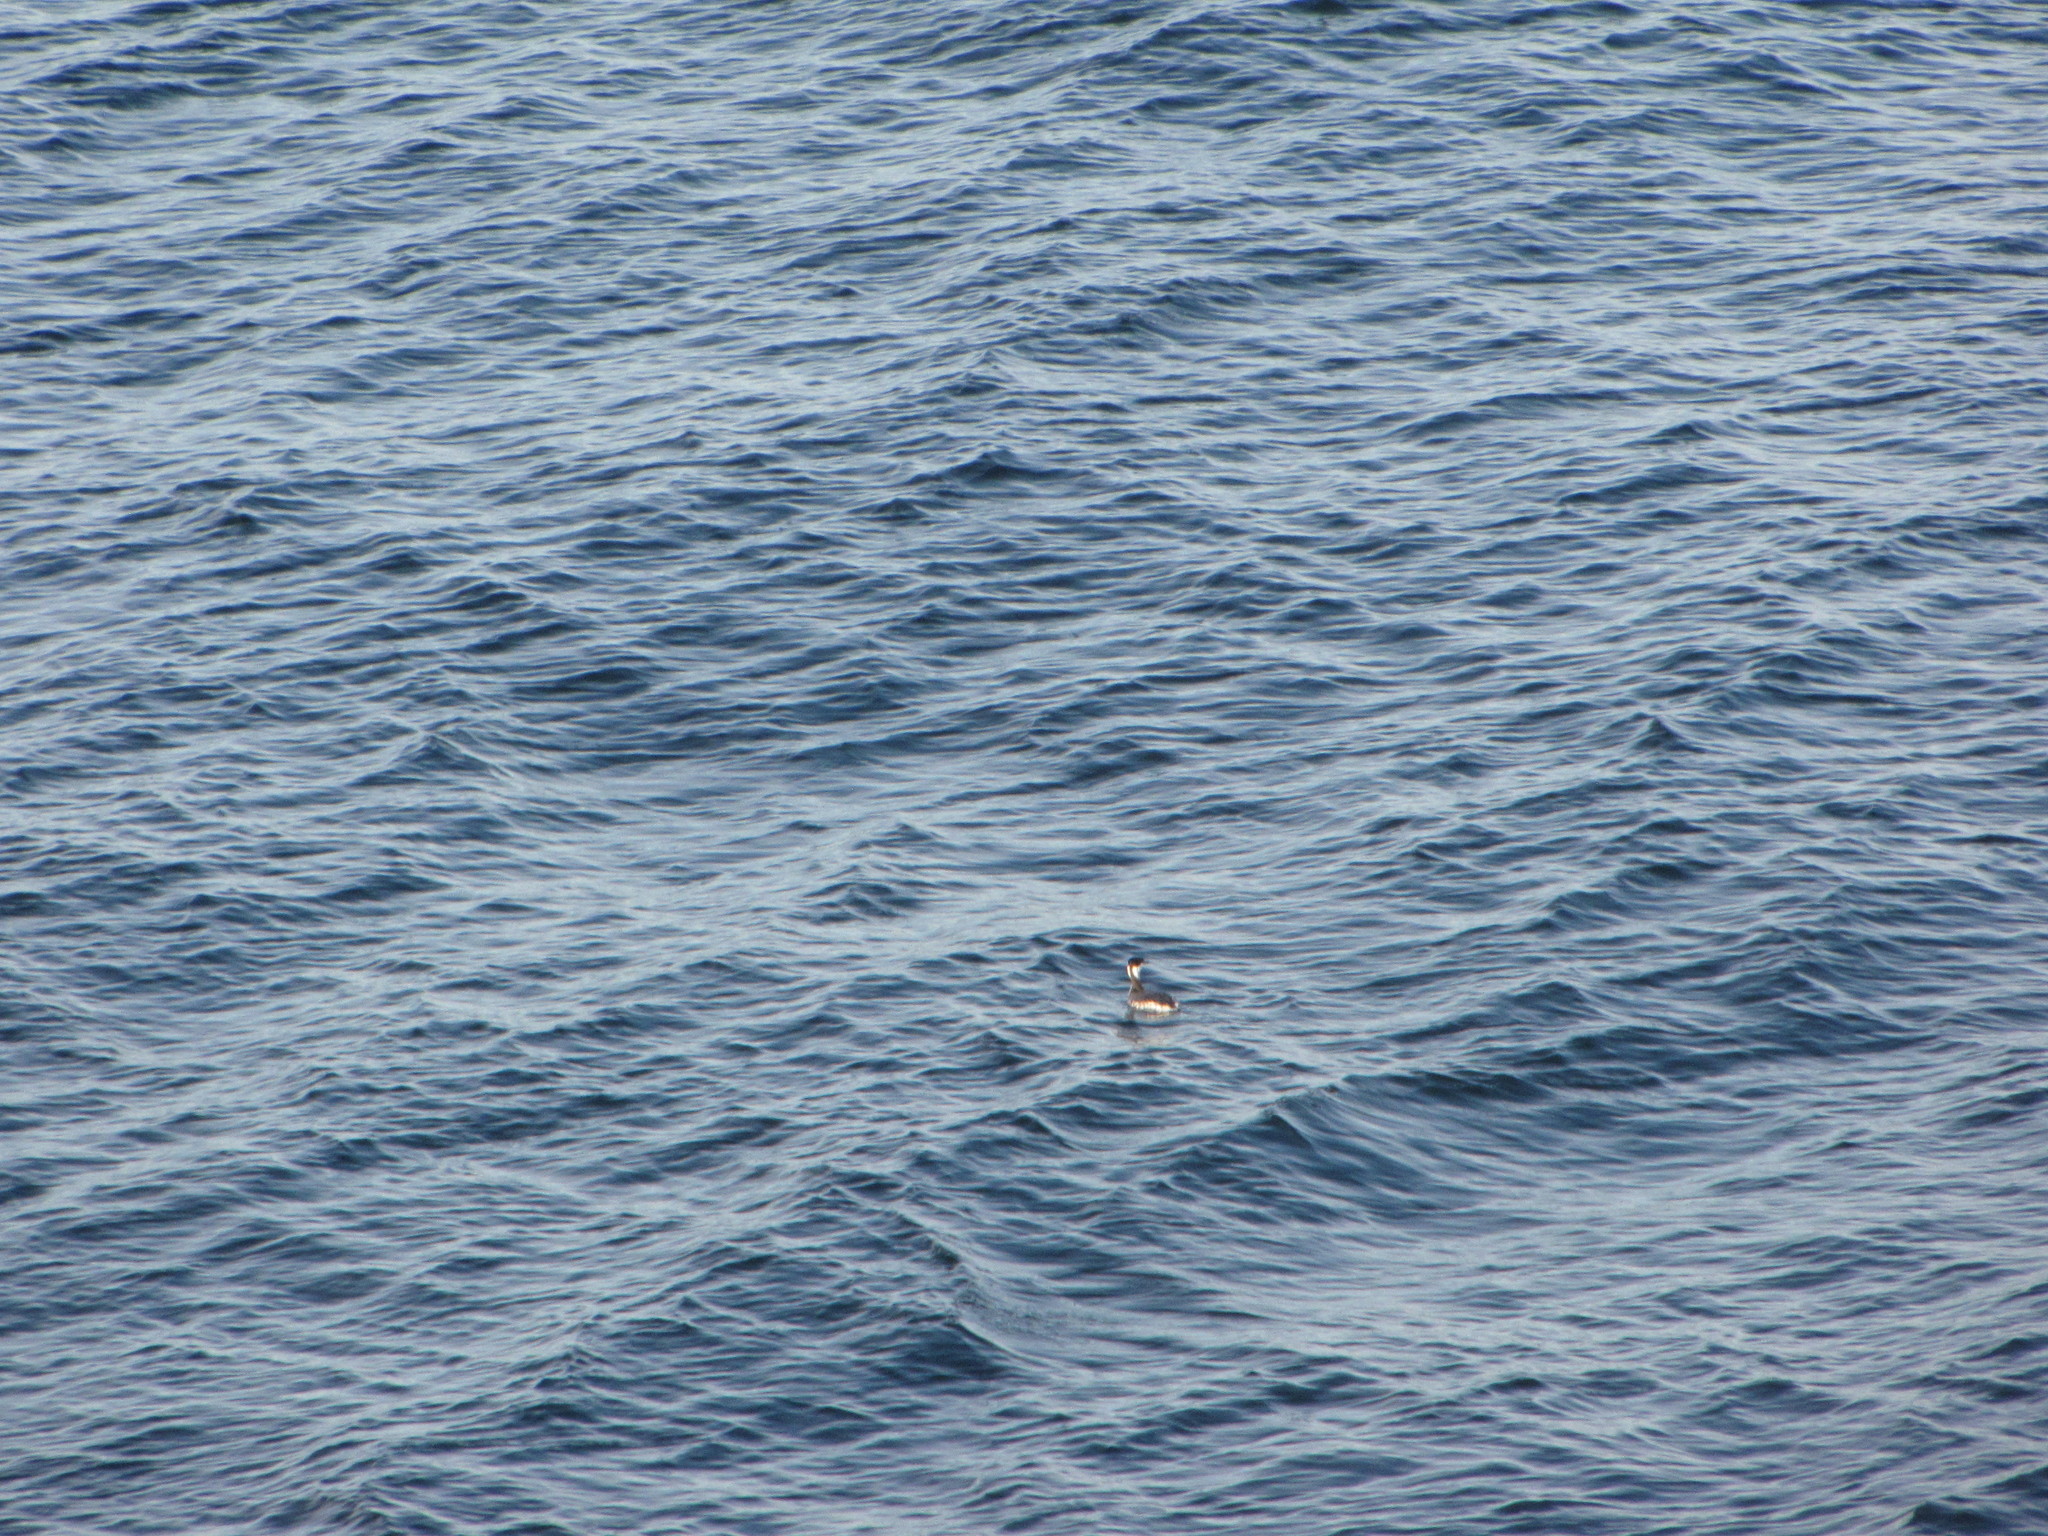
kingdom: Animalia
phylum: Chordata
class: Aves
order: Podicipediformes
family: Podicipedidae
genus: Podiceps
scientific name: Podiceps auritus
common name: Horned grebe
